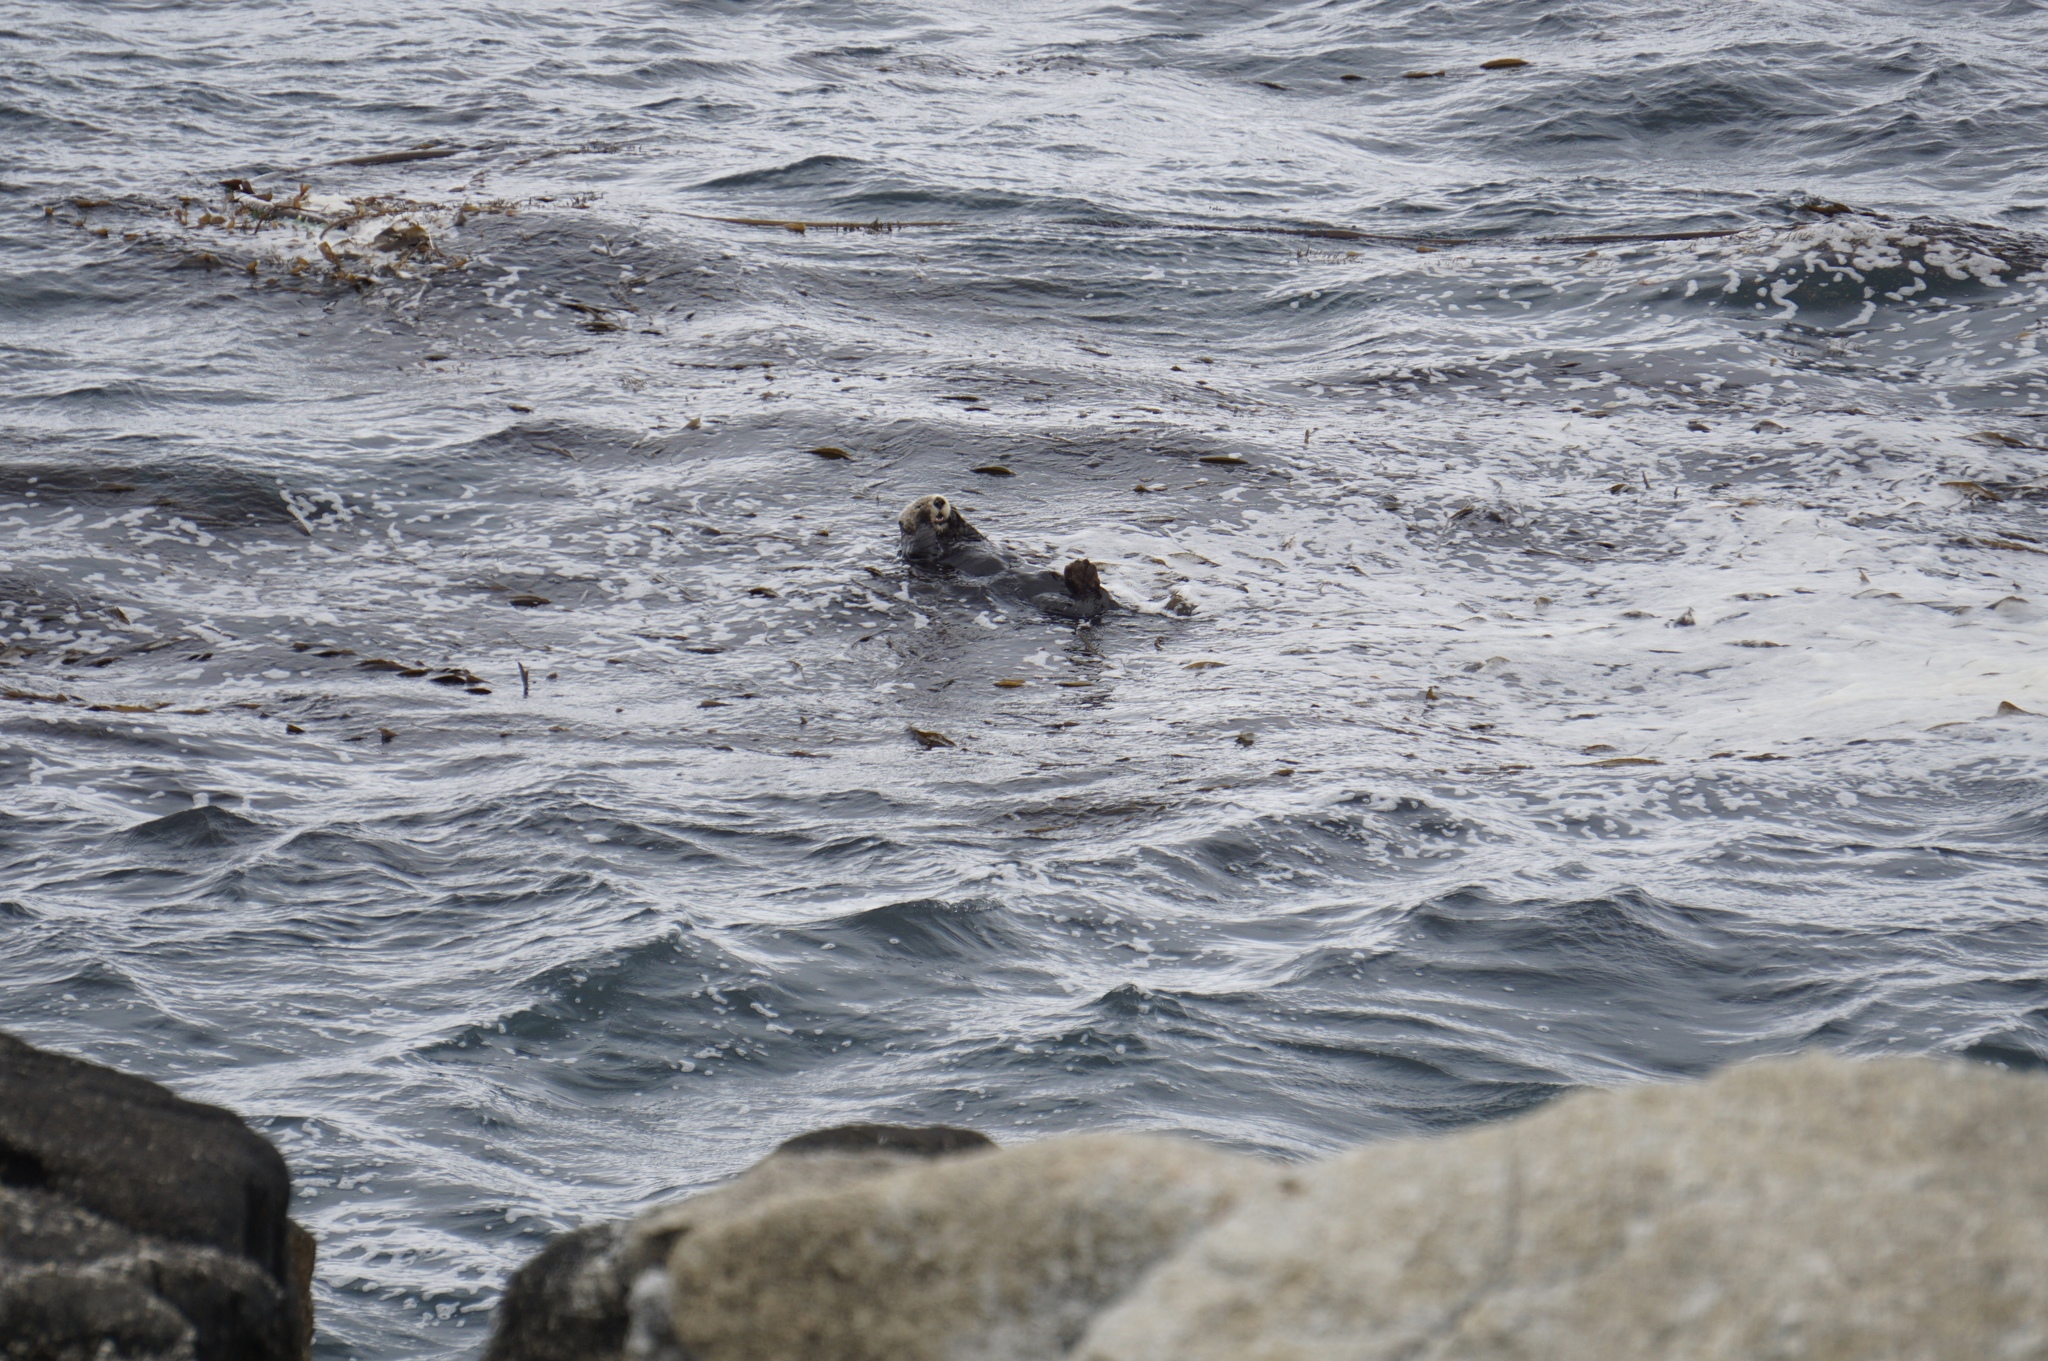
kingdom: Animalia
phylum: Chordata
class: Mammalia
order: Carnivora
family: Mustelidae
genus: Enhydra
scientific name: Enhydra lutris
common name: Sea otter
